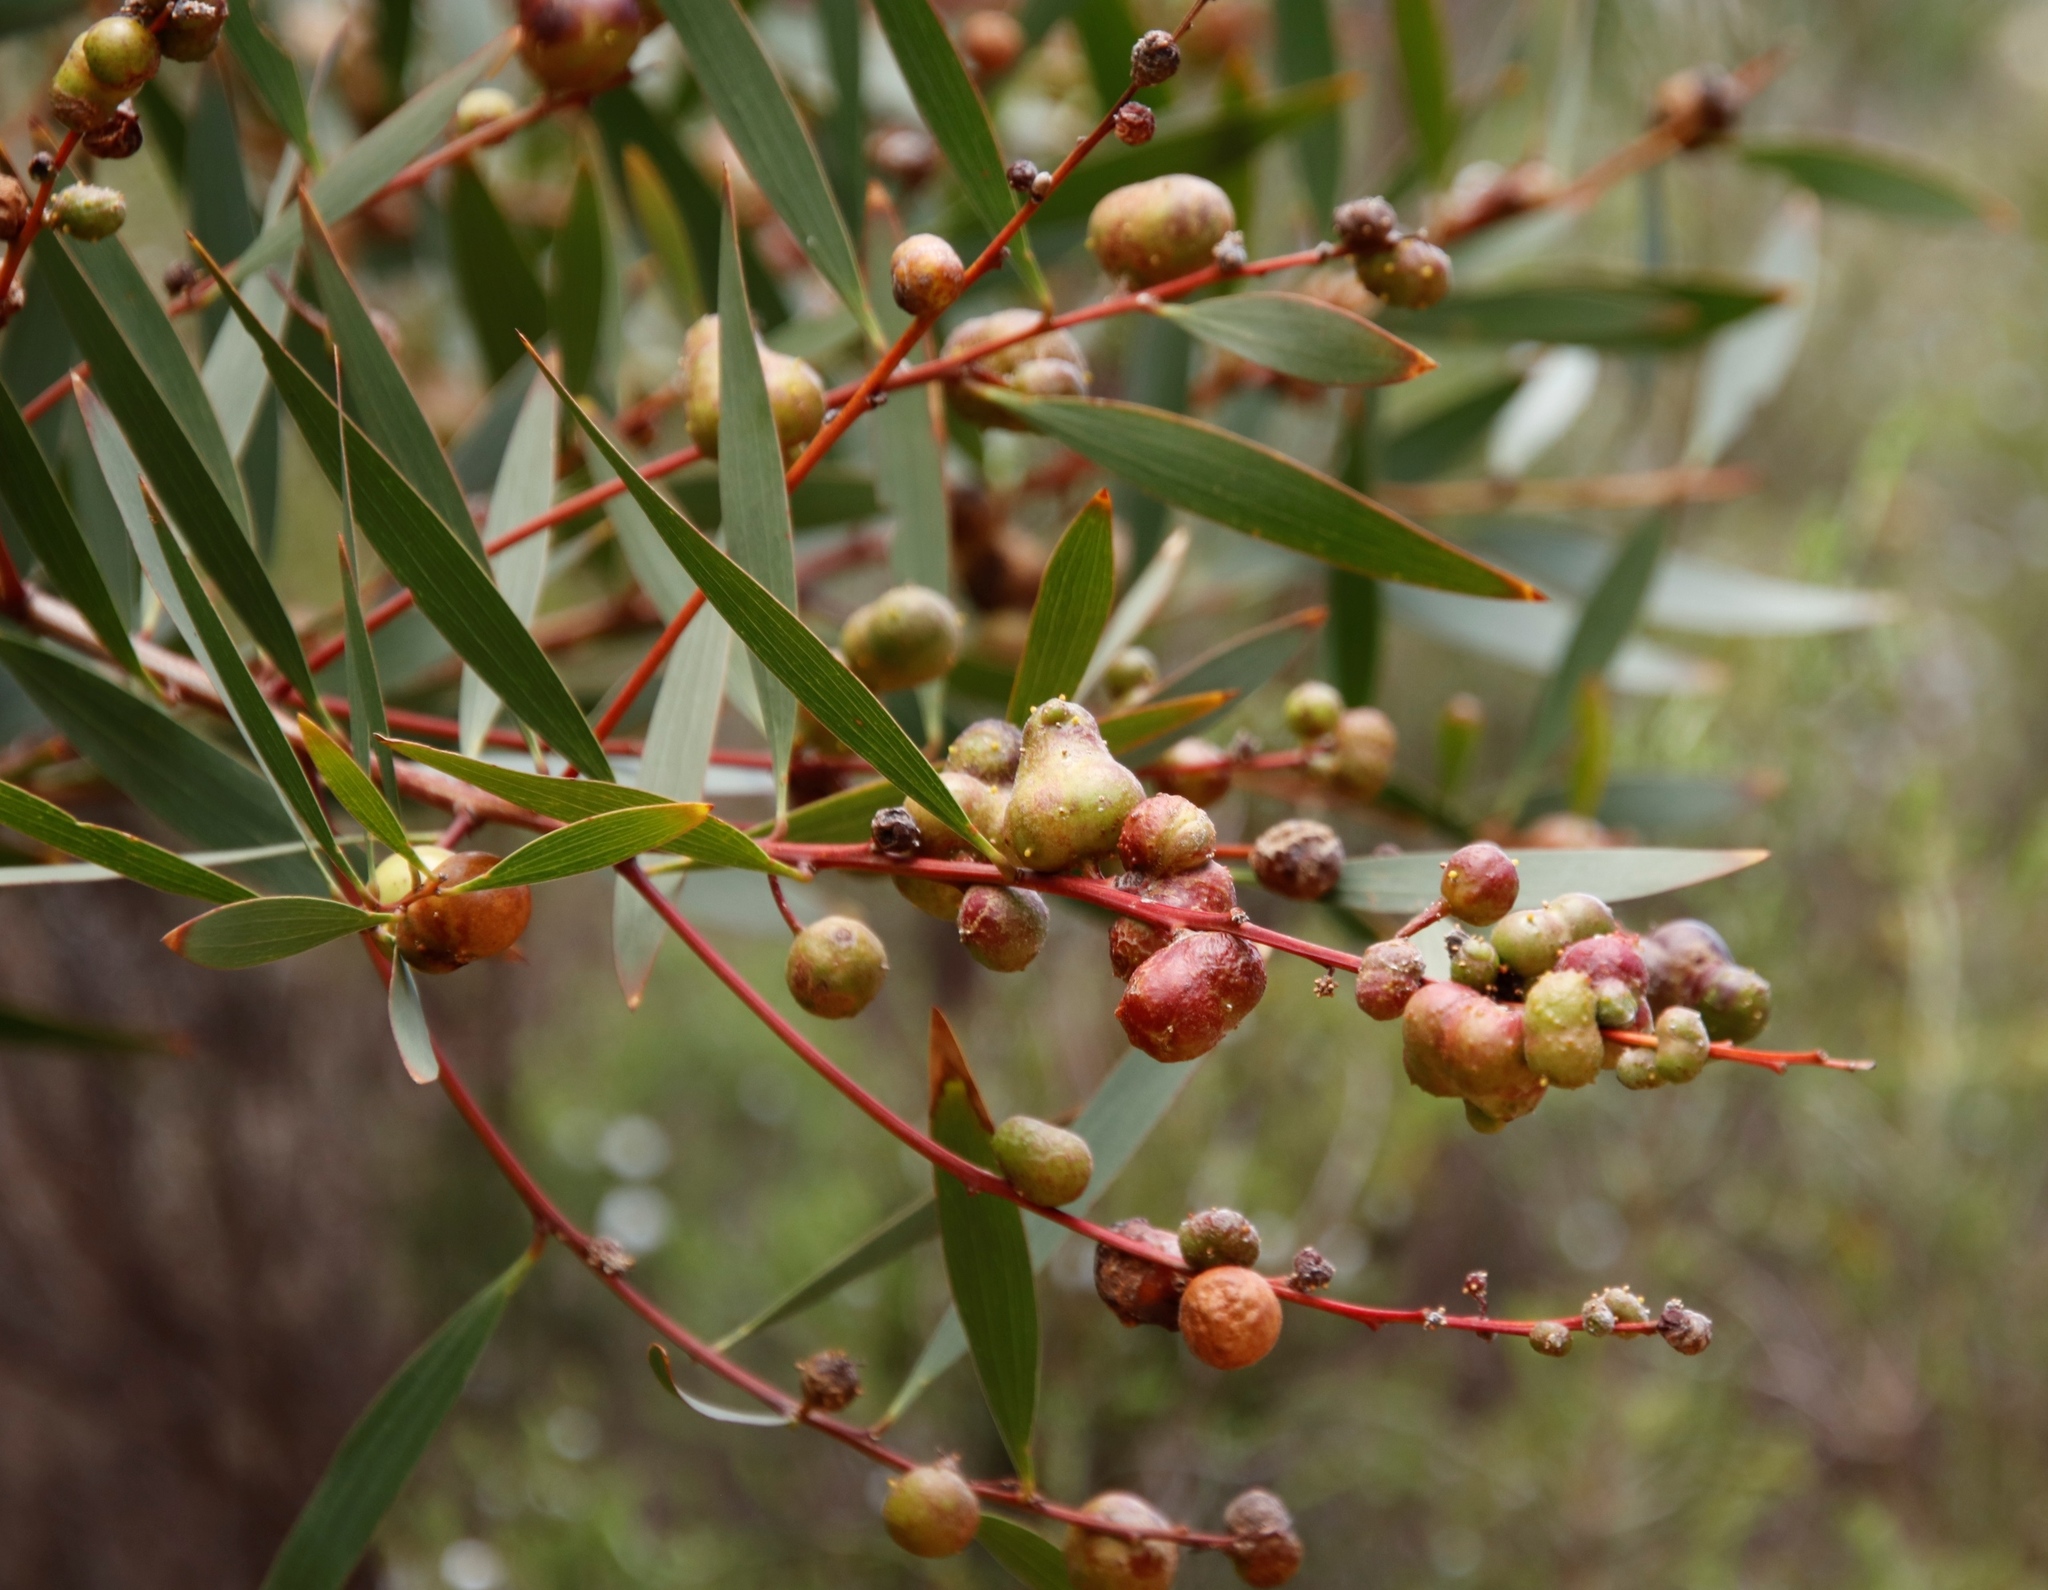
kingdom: Animalia
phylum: Arthropoda
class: Insecta
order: Hymenoptera
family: Pteromalidae
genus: Trichilogaster
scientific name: Trichilogaster acaciaelongifoliae
